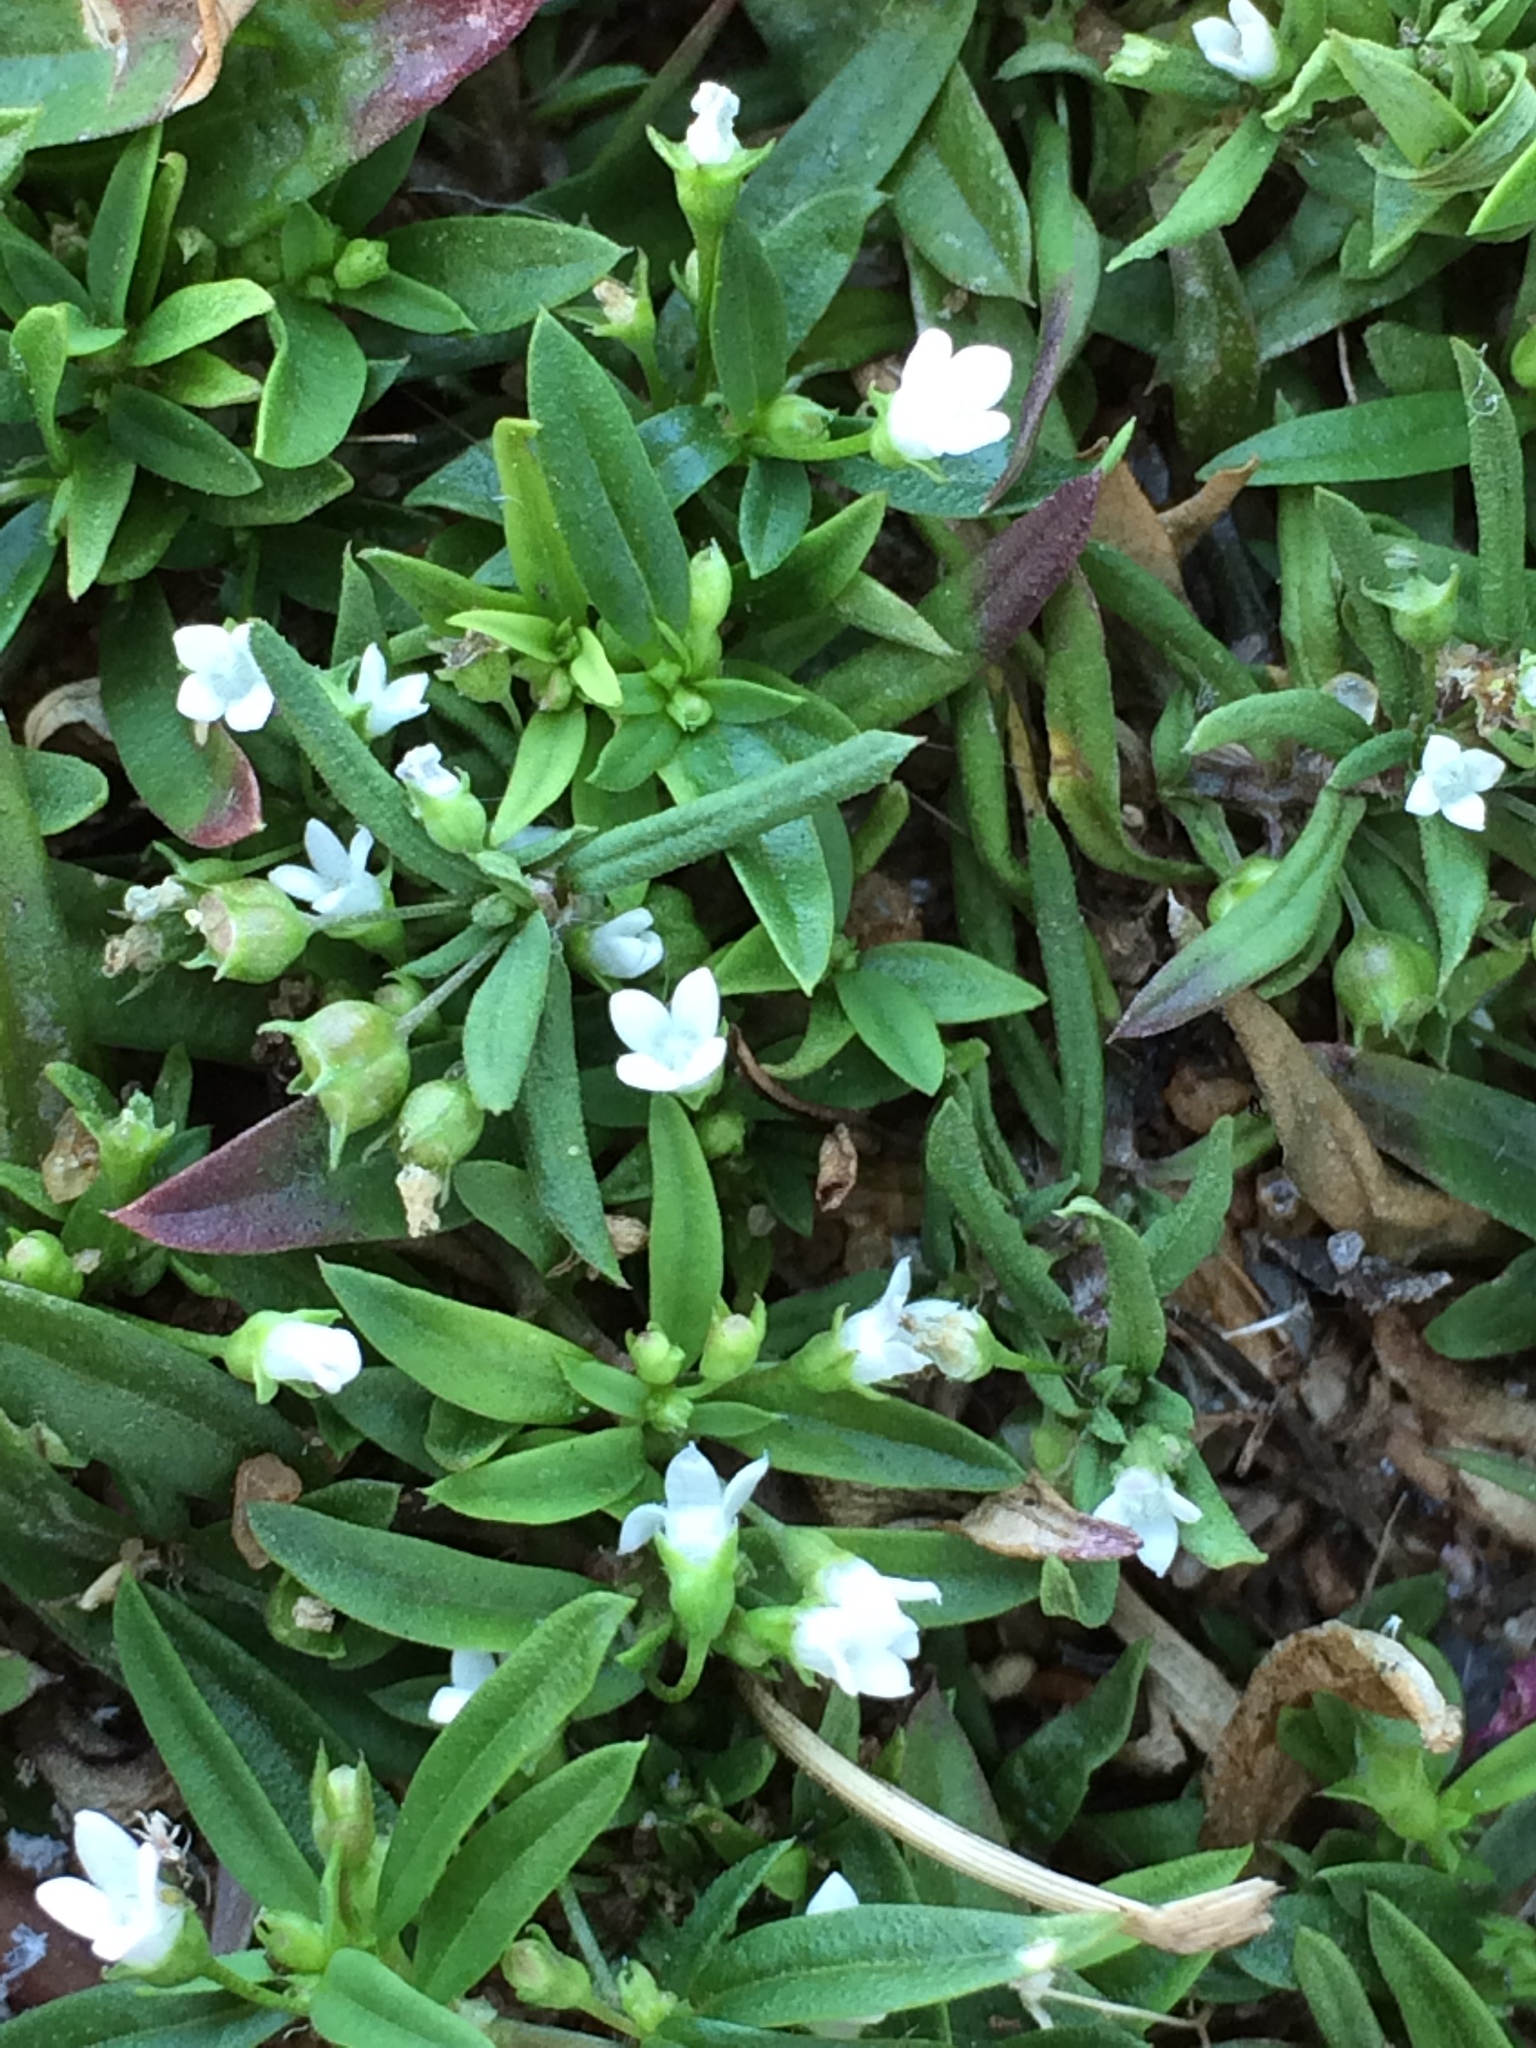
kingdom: Plantae
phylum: Tracheophyta
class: Magnoliopsida
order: Gentianales
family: Rubiaceae
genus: Oldenlandia
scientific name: Oldenlandia corymbosa
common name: Flat-top mille graines
